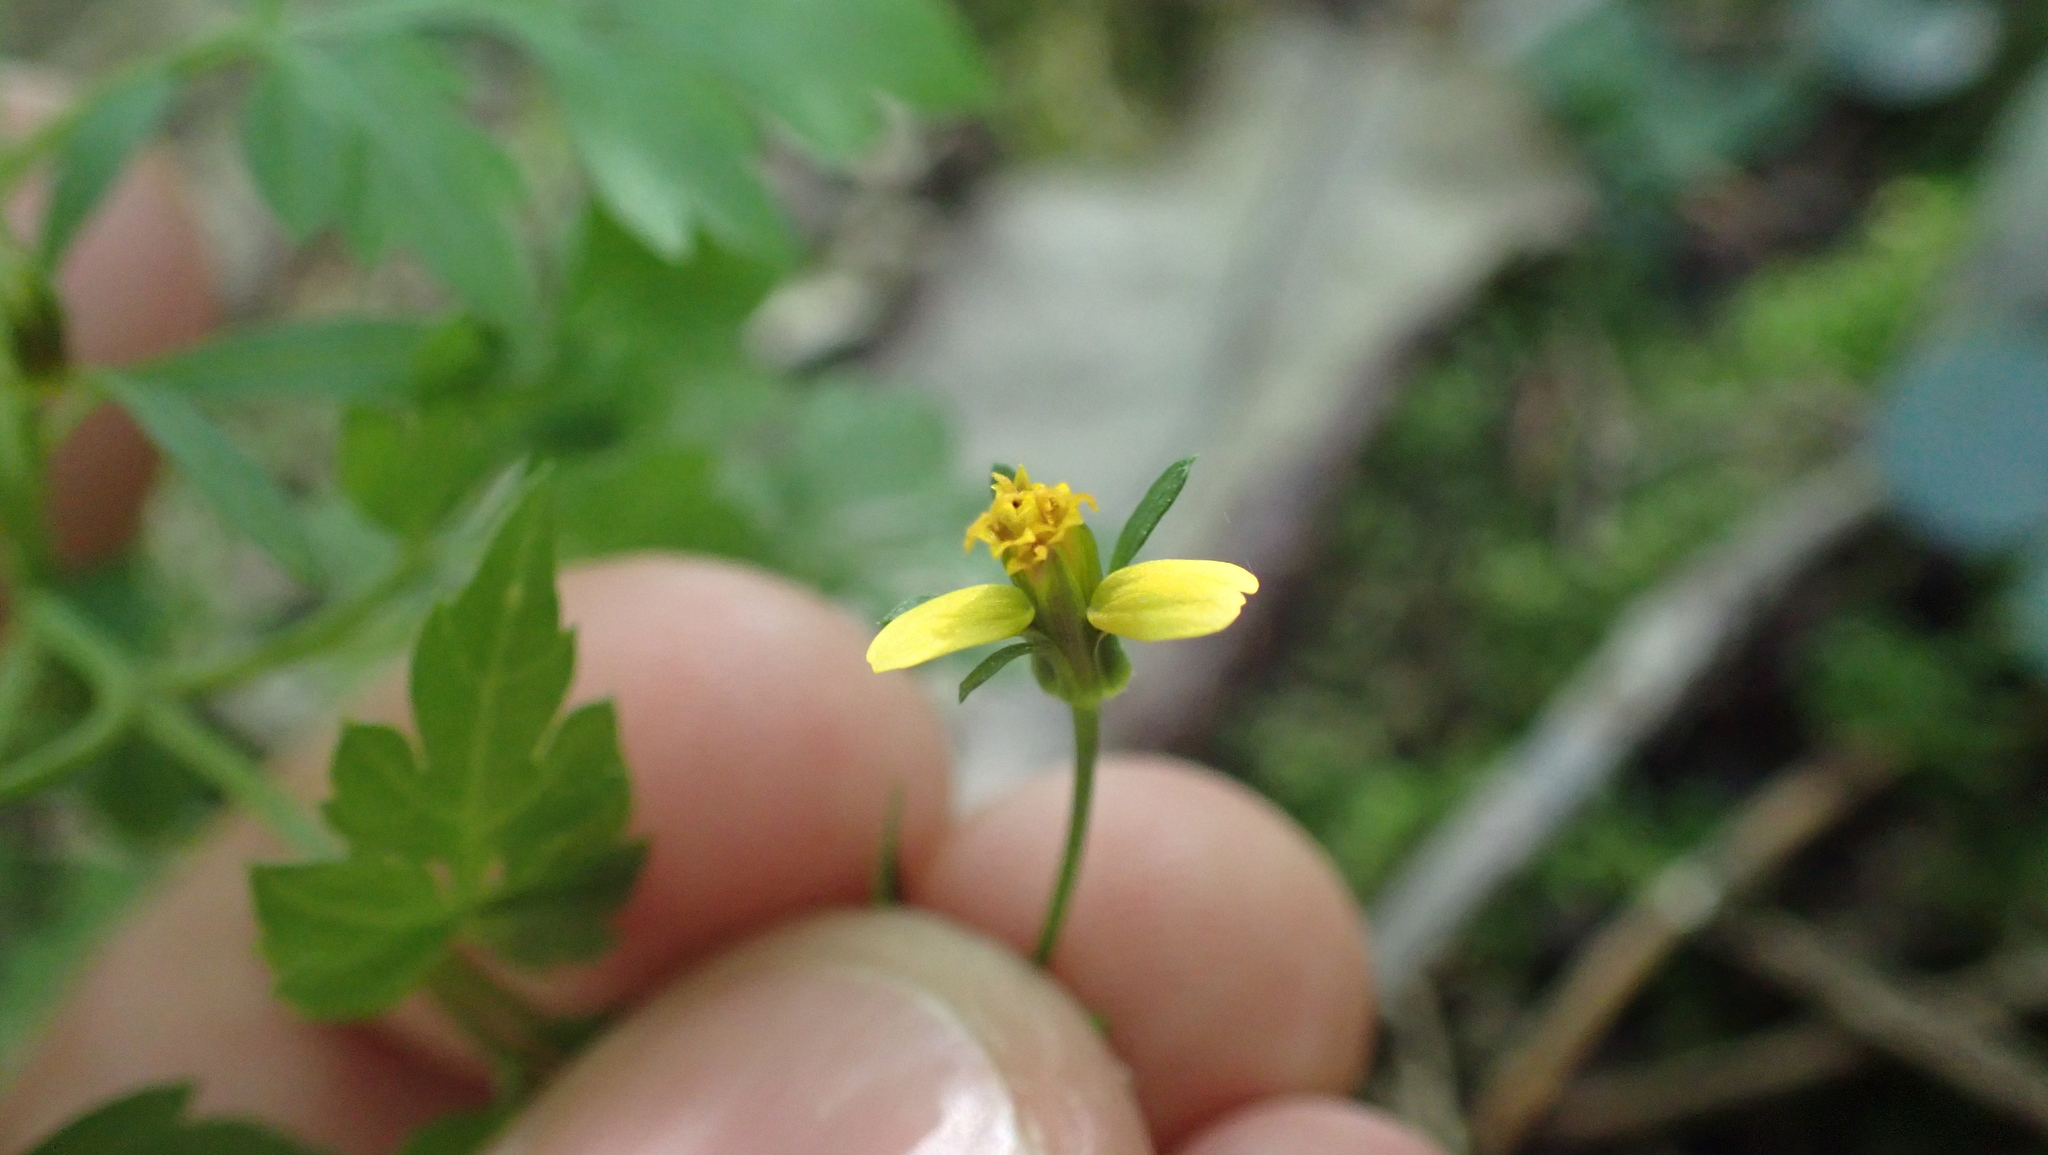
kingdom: Plantae
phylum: Tracheophyta
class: Magnoliopsida
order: Asterales
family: Asteraceae
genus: Bidens
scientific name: Bidens bipinnata
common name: Spanish-needles
